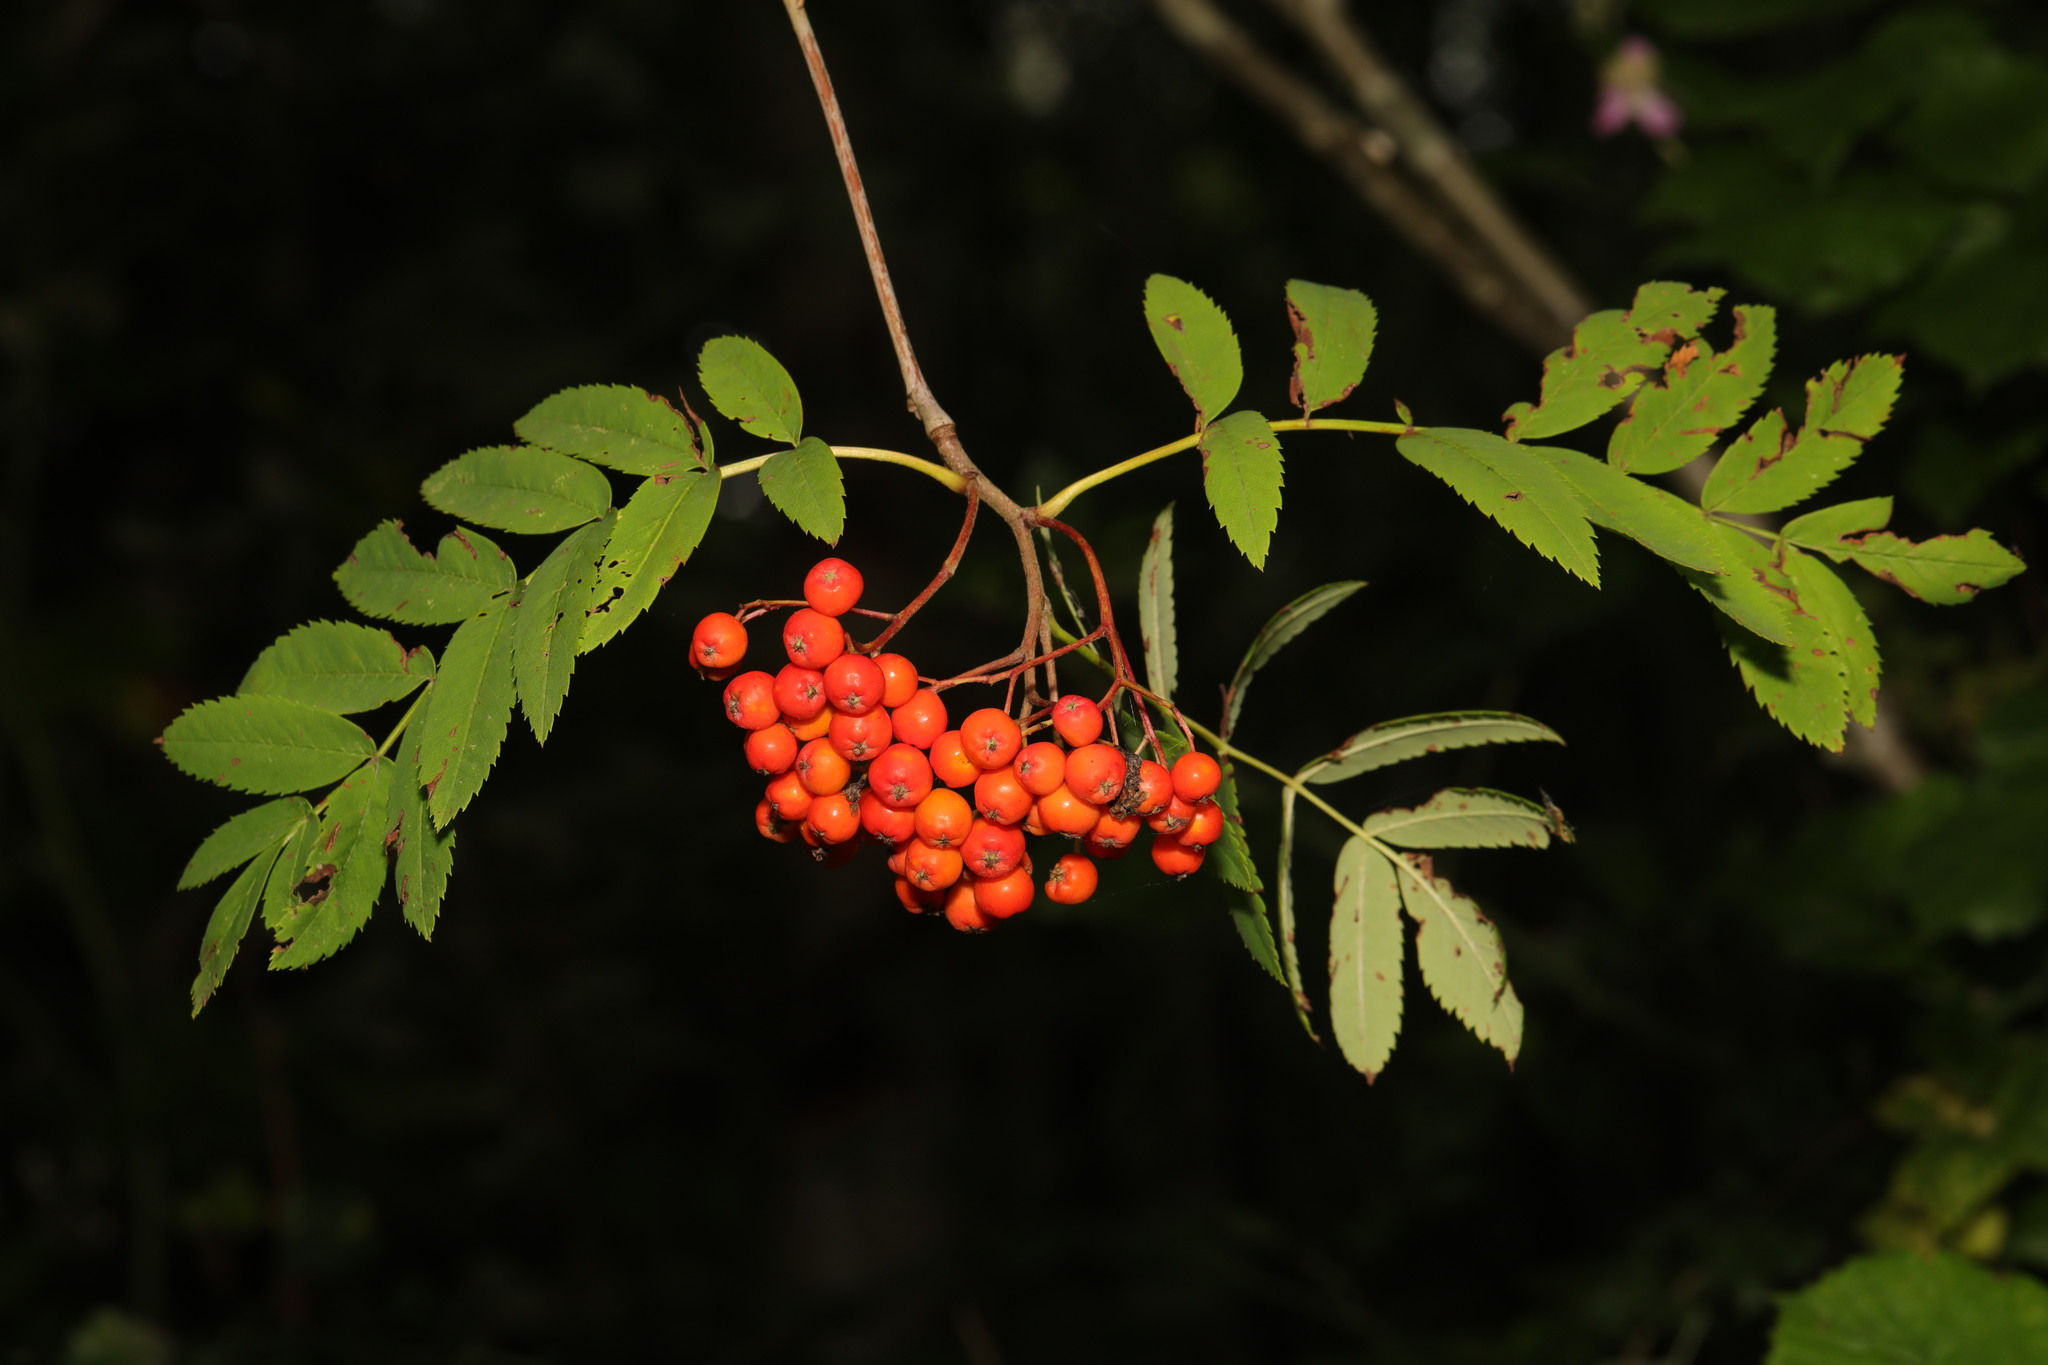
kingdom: Plantae
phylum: Tracheophyta
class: Magnoliopsida
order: Rosales
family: Rosaceae
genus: Sorbus
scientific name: Sorbus aucuparia
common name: Rowan
